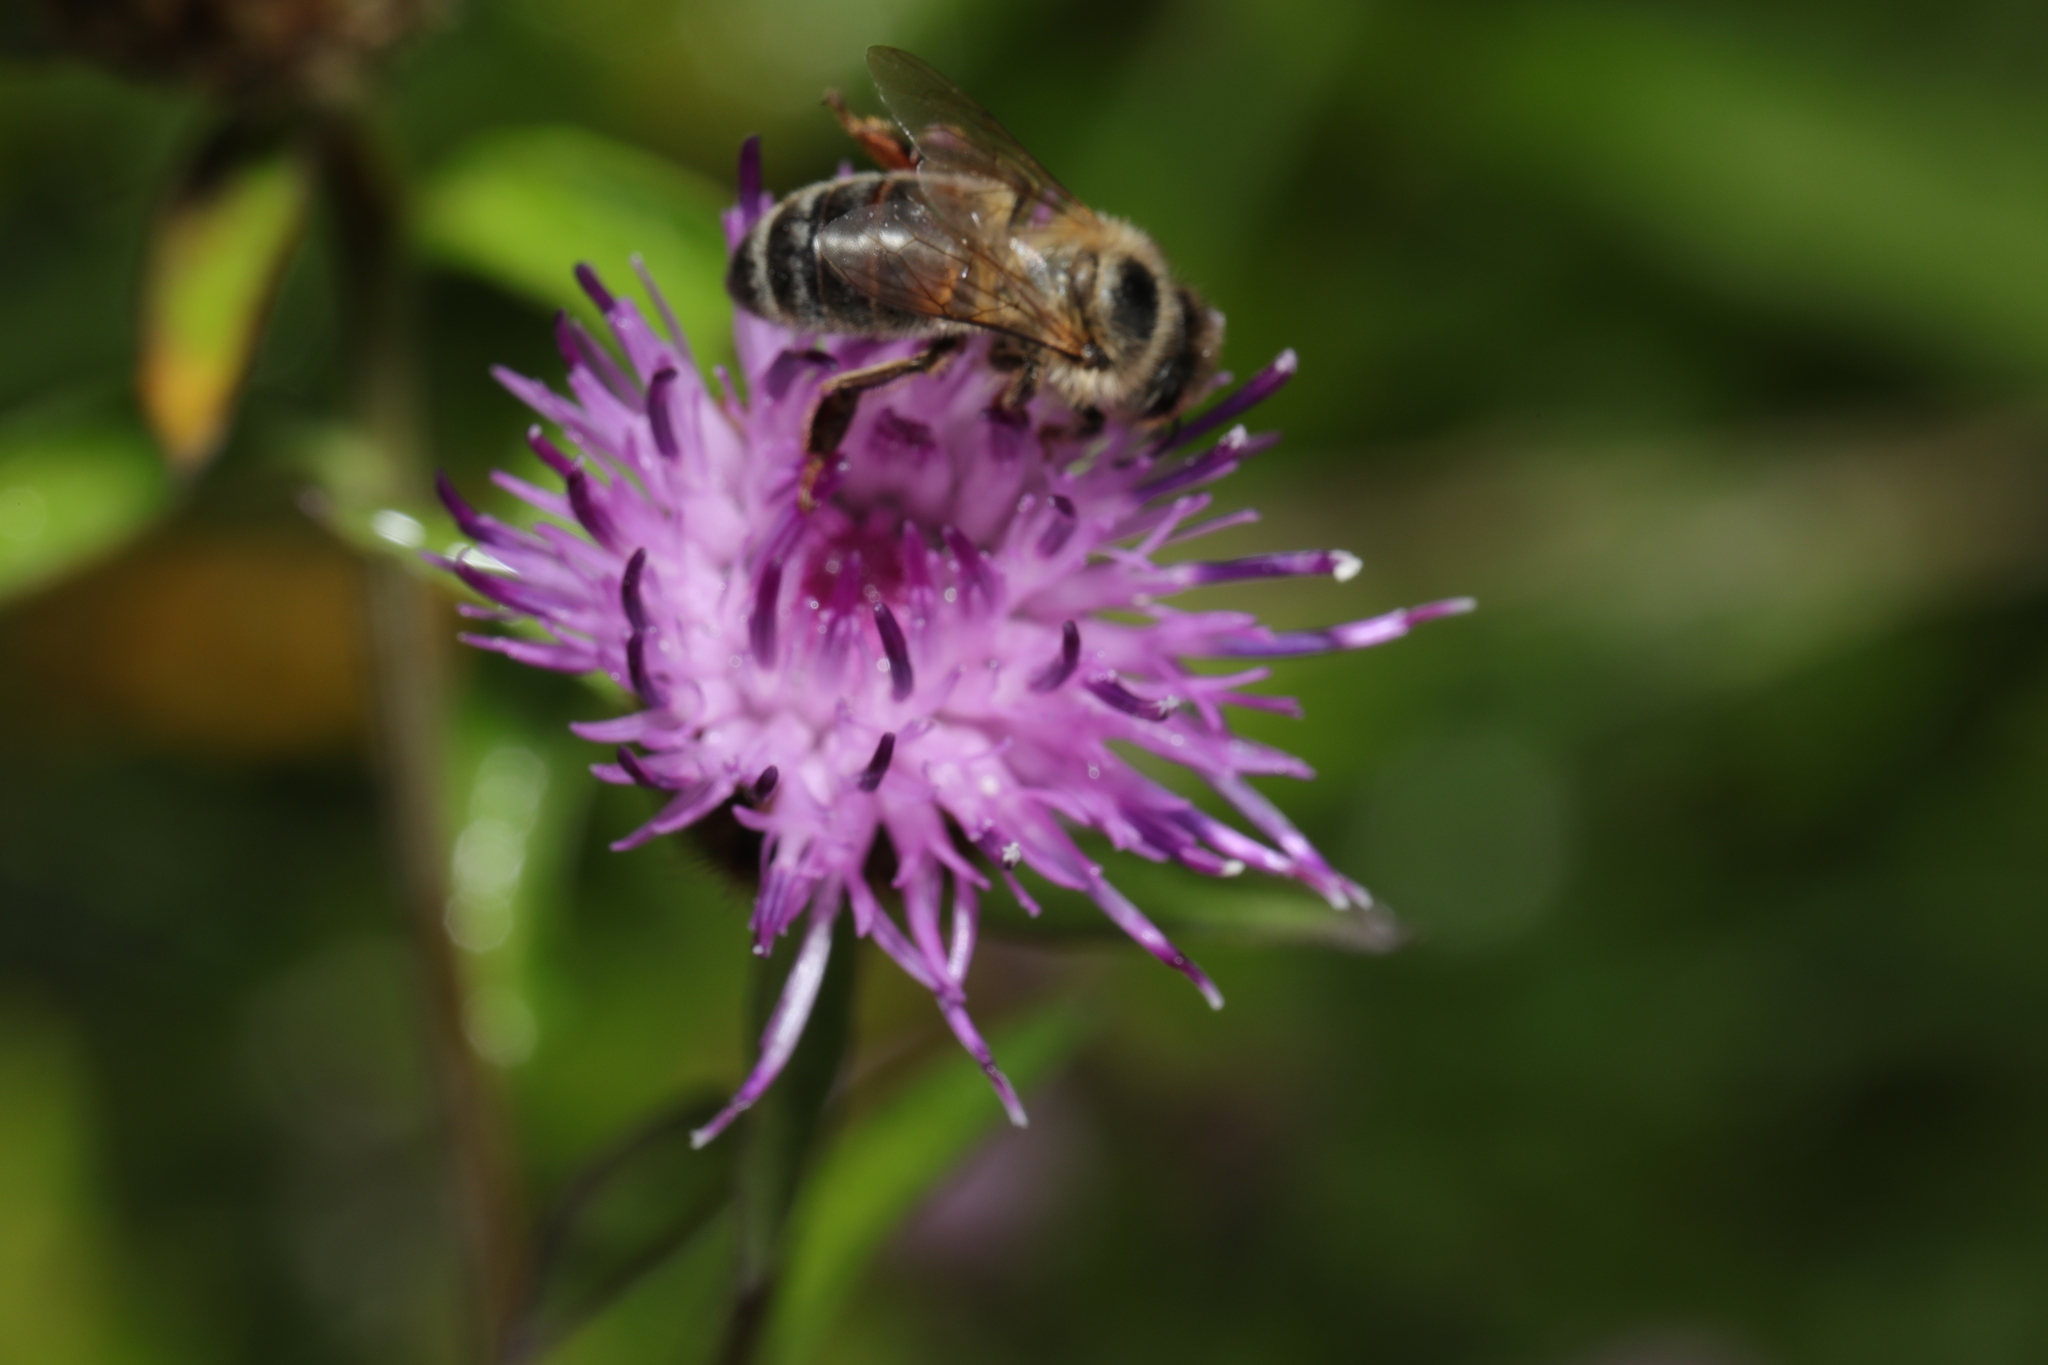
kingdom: Animalia
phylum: Arthropoda
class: Insecta
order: Hymenoptera
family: Apidae
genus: Apis
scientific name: Apis mellifera
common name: Honey bee
